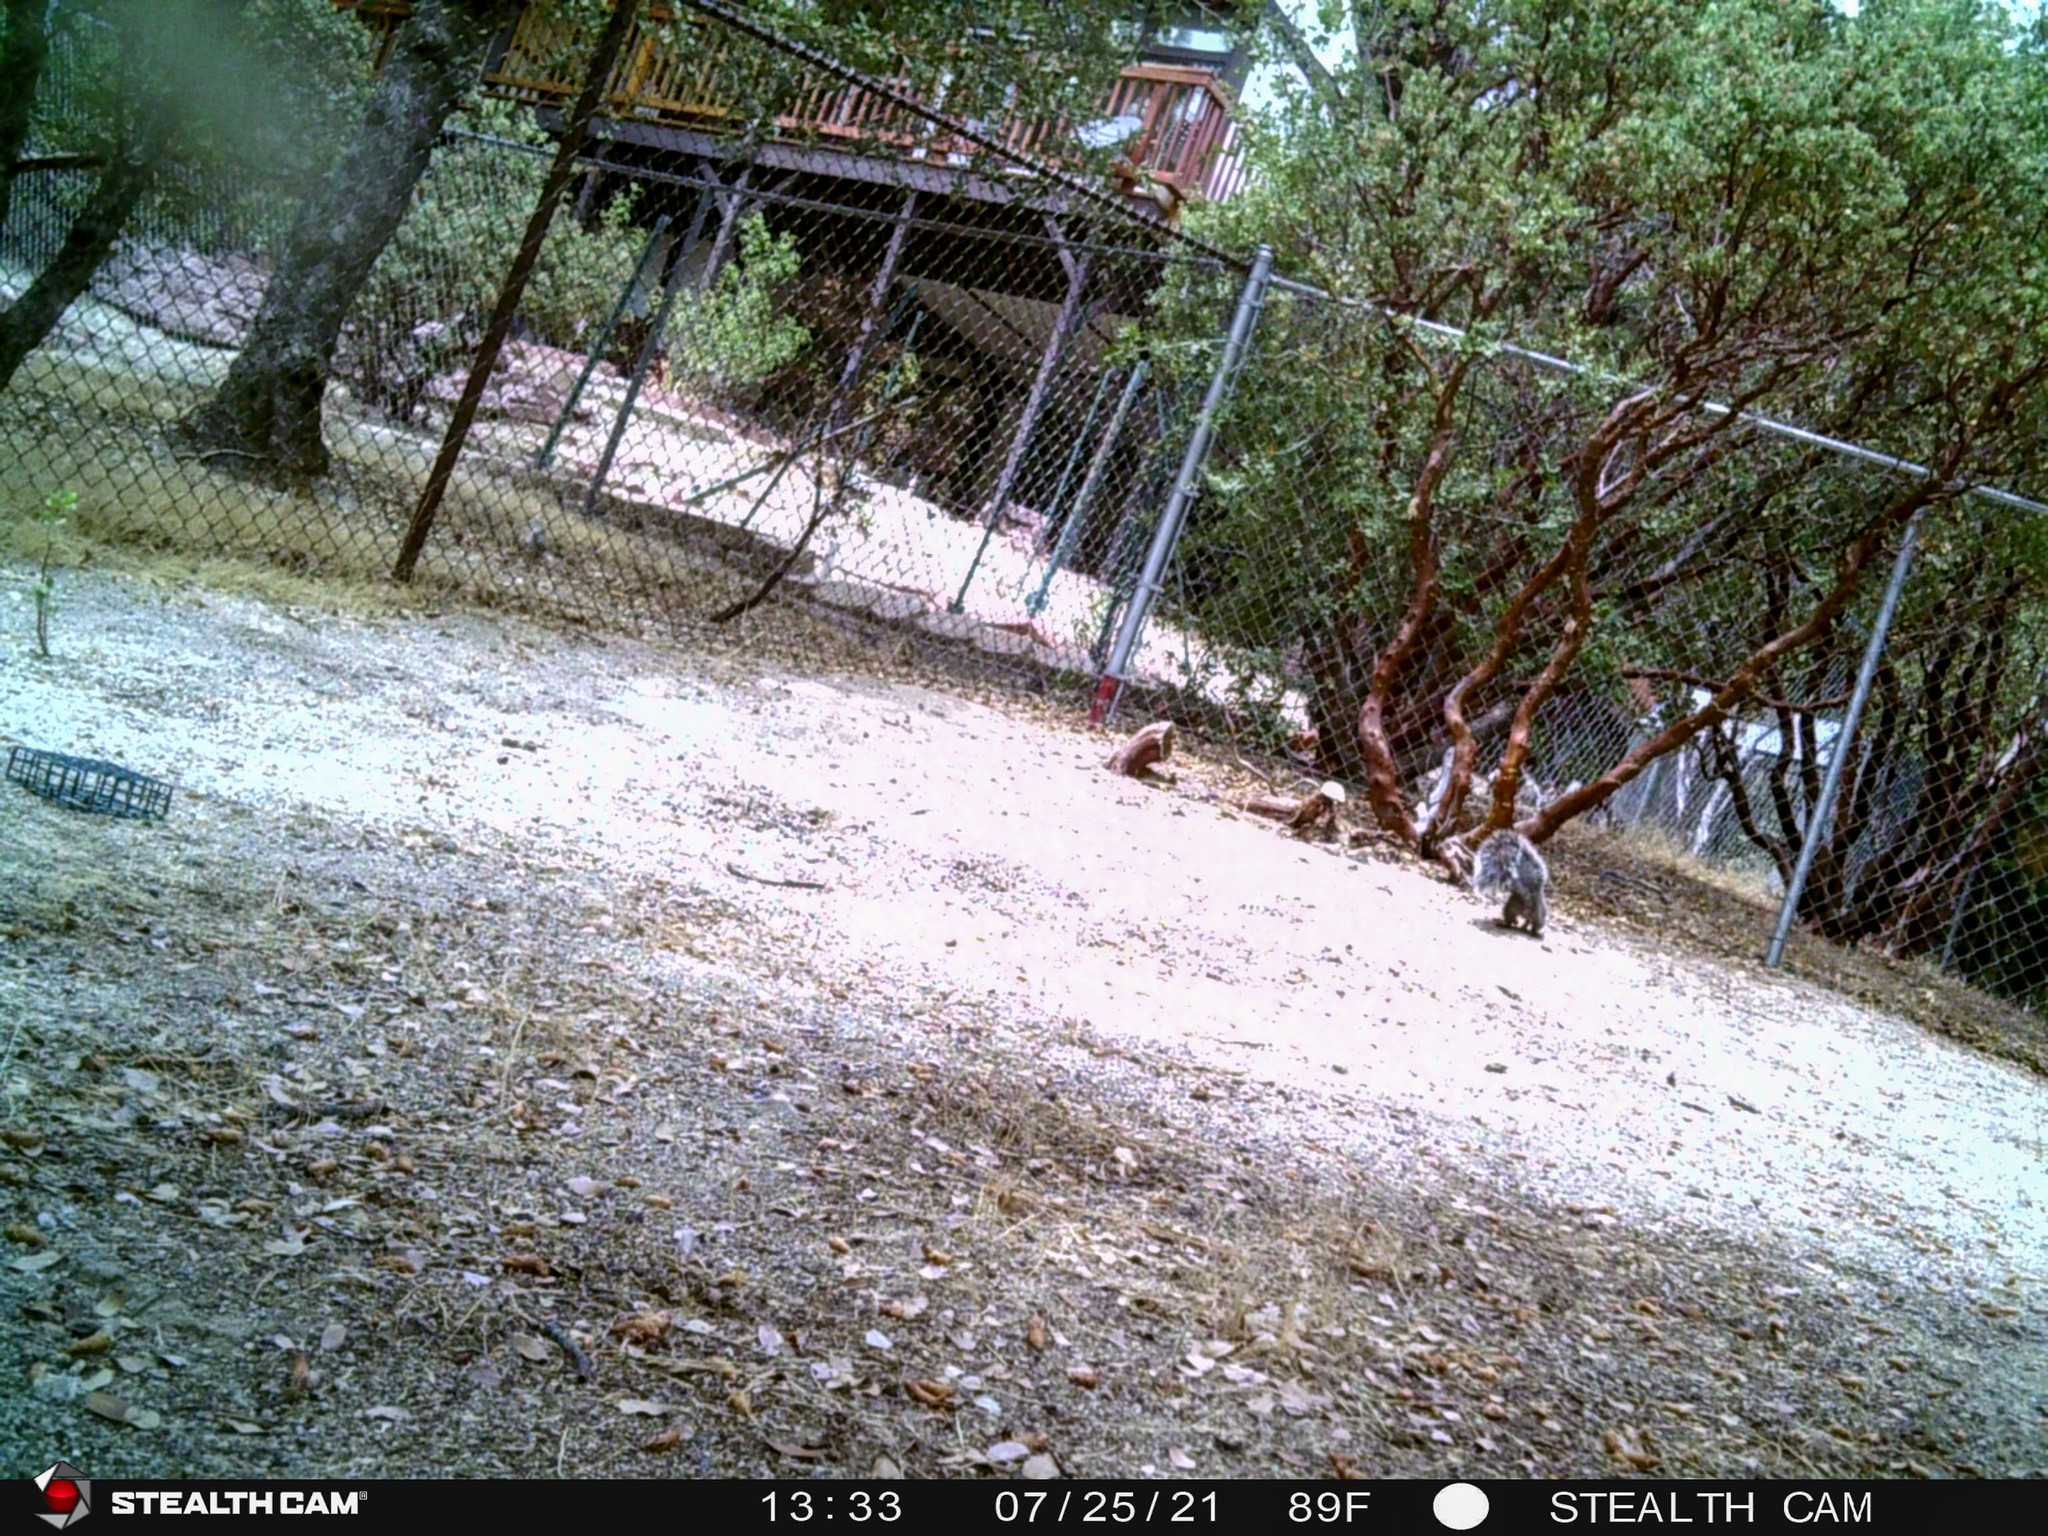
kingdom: Animalia
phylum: Chordata
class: Mammalia
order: Rodentia
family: Sciuridae
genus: Sciurus
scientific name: Sciurus griseus
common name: Western gray squirrel
